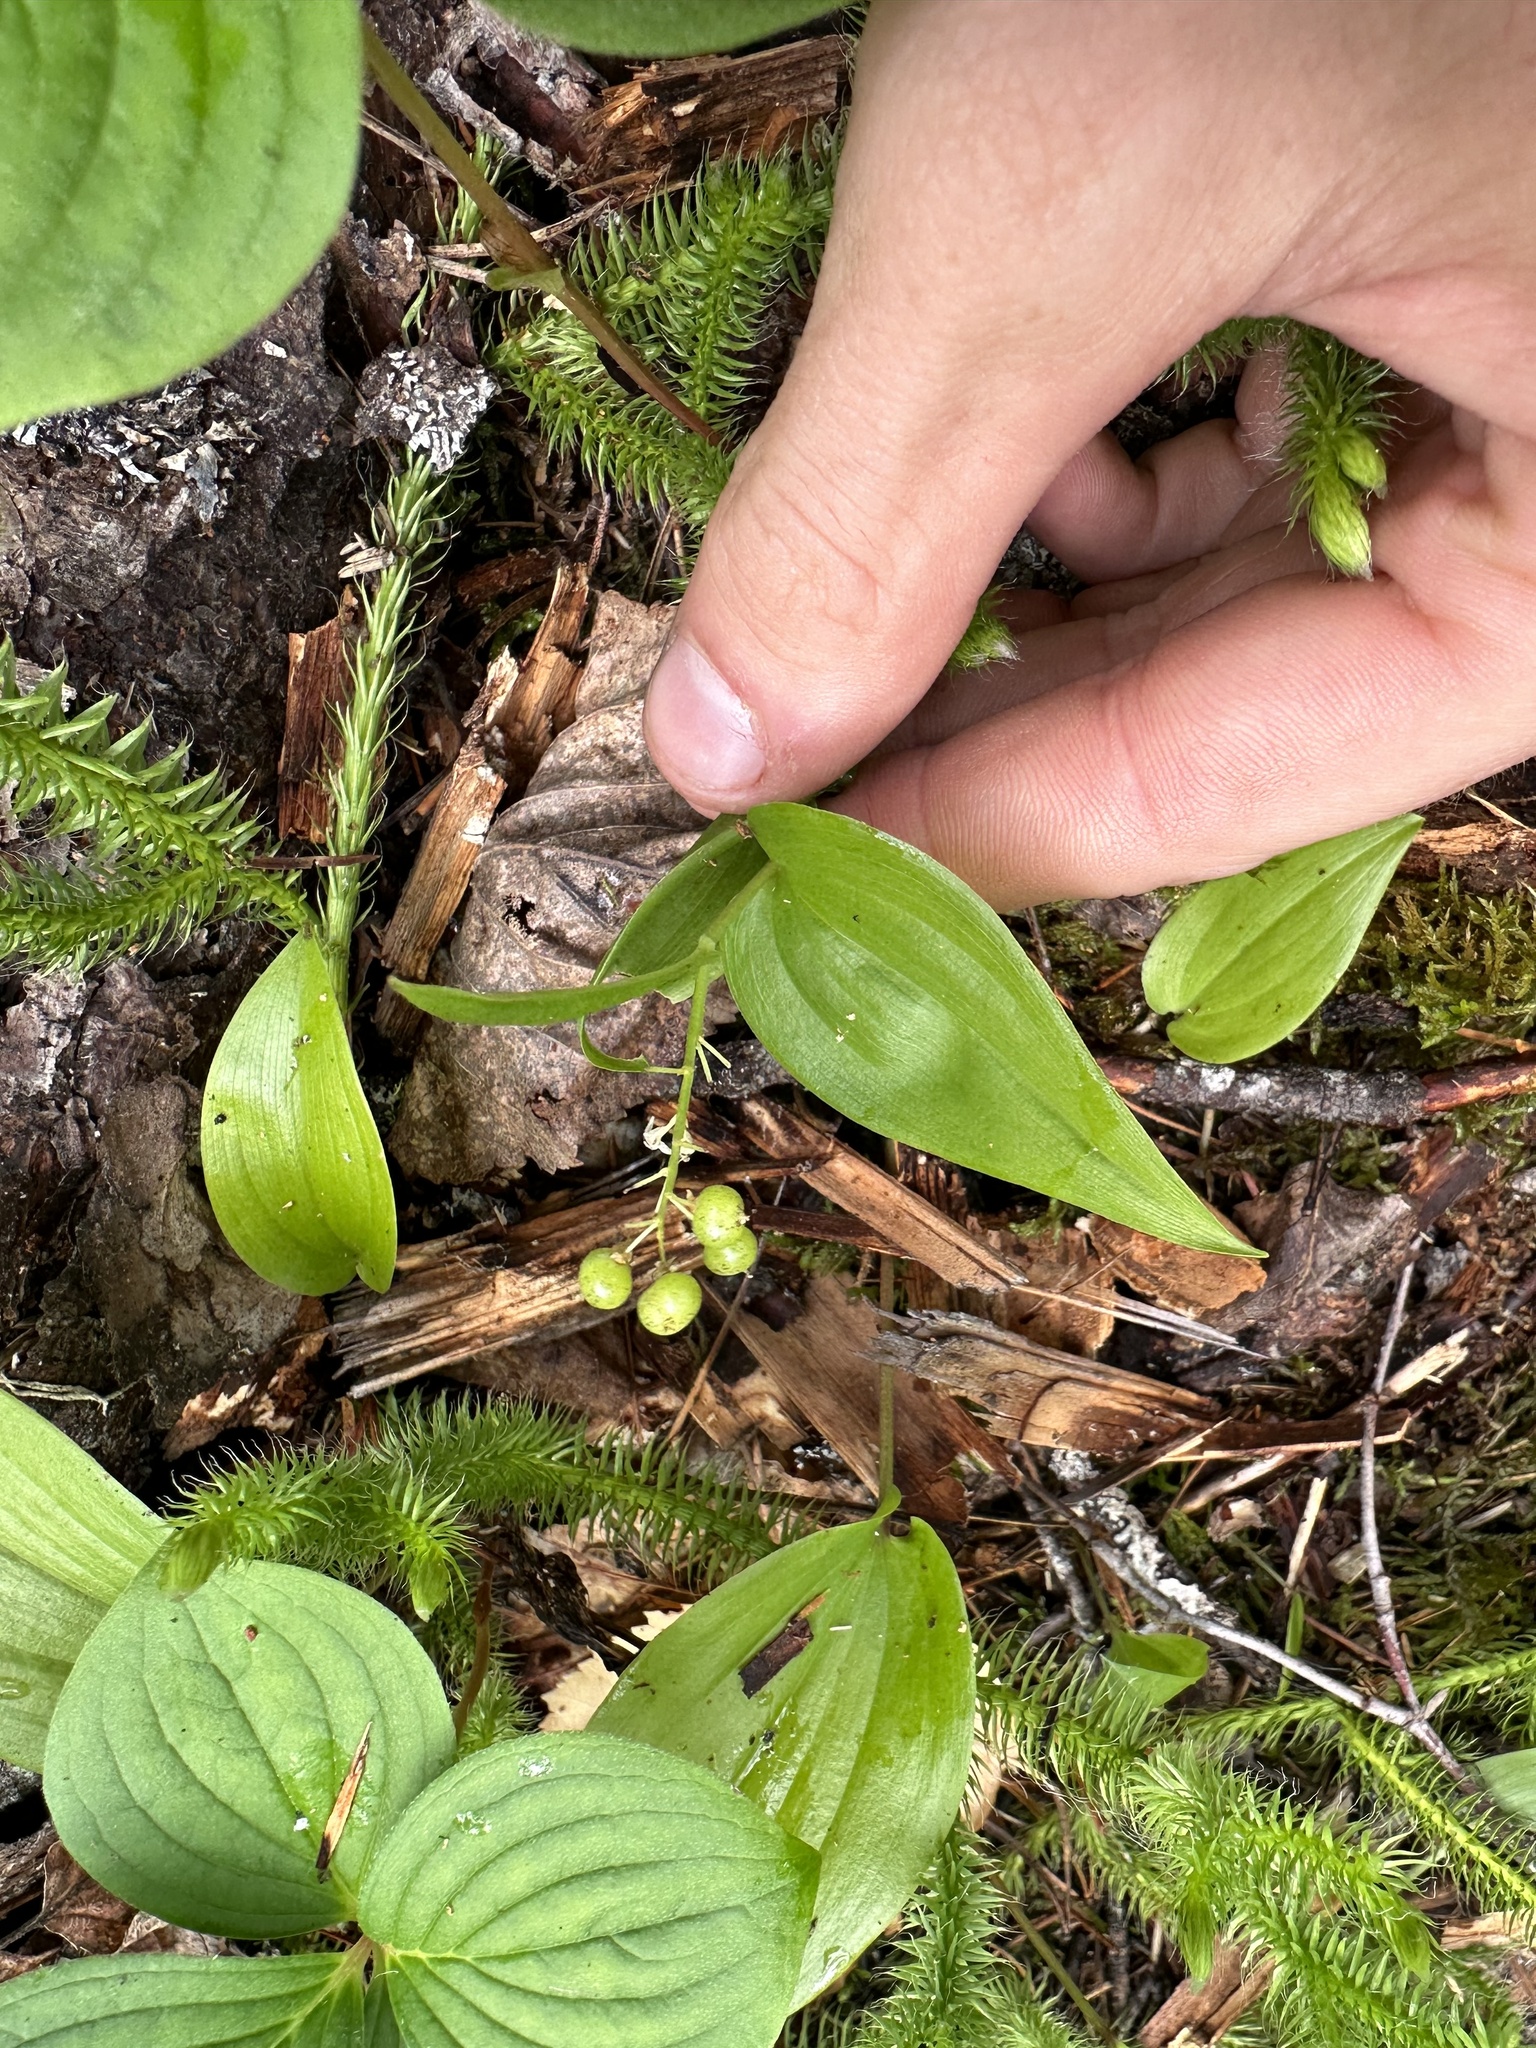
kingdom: Plantae
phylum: Tracheophyta
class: Liliopsida
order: Asparagales
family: Asparagaceae
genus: Maianthemum
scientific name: Maianthemum canadense
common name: False lily-of-the-valley
